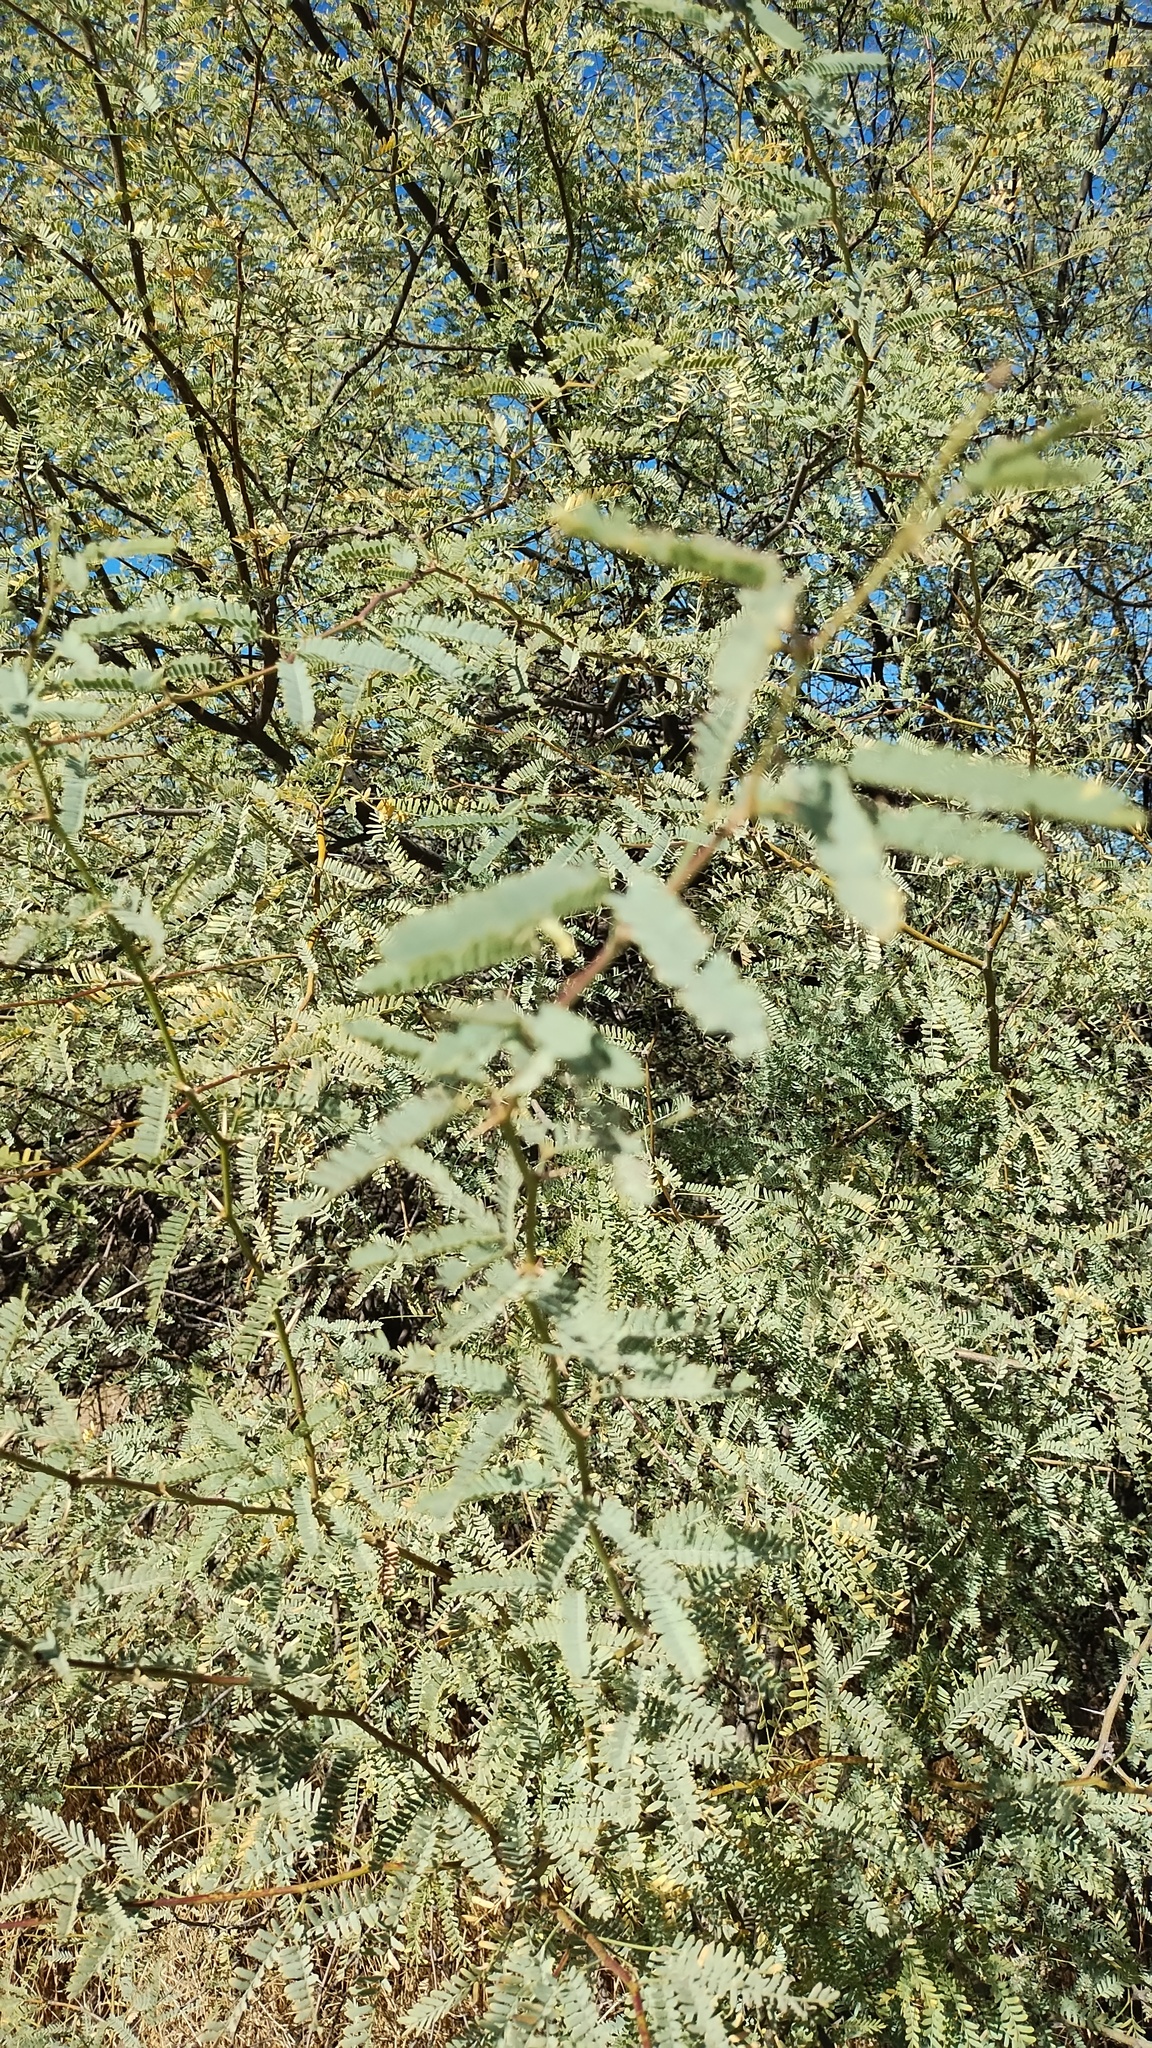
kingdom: Plantae
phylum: Tracheophyta
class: Magnoliopsida
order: Fabales
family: Fabaceae
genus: Prosopis
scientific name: Prosopis velutina
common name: Velvet mesquite
